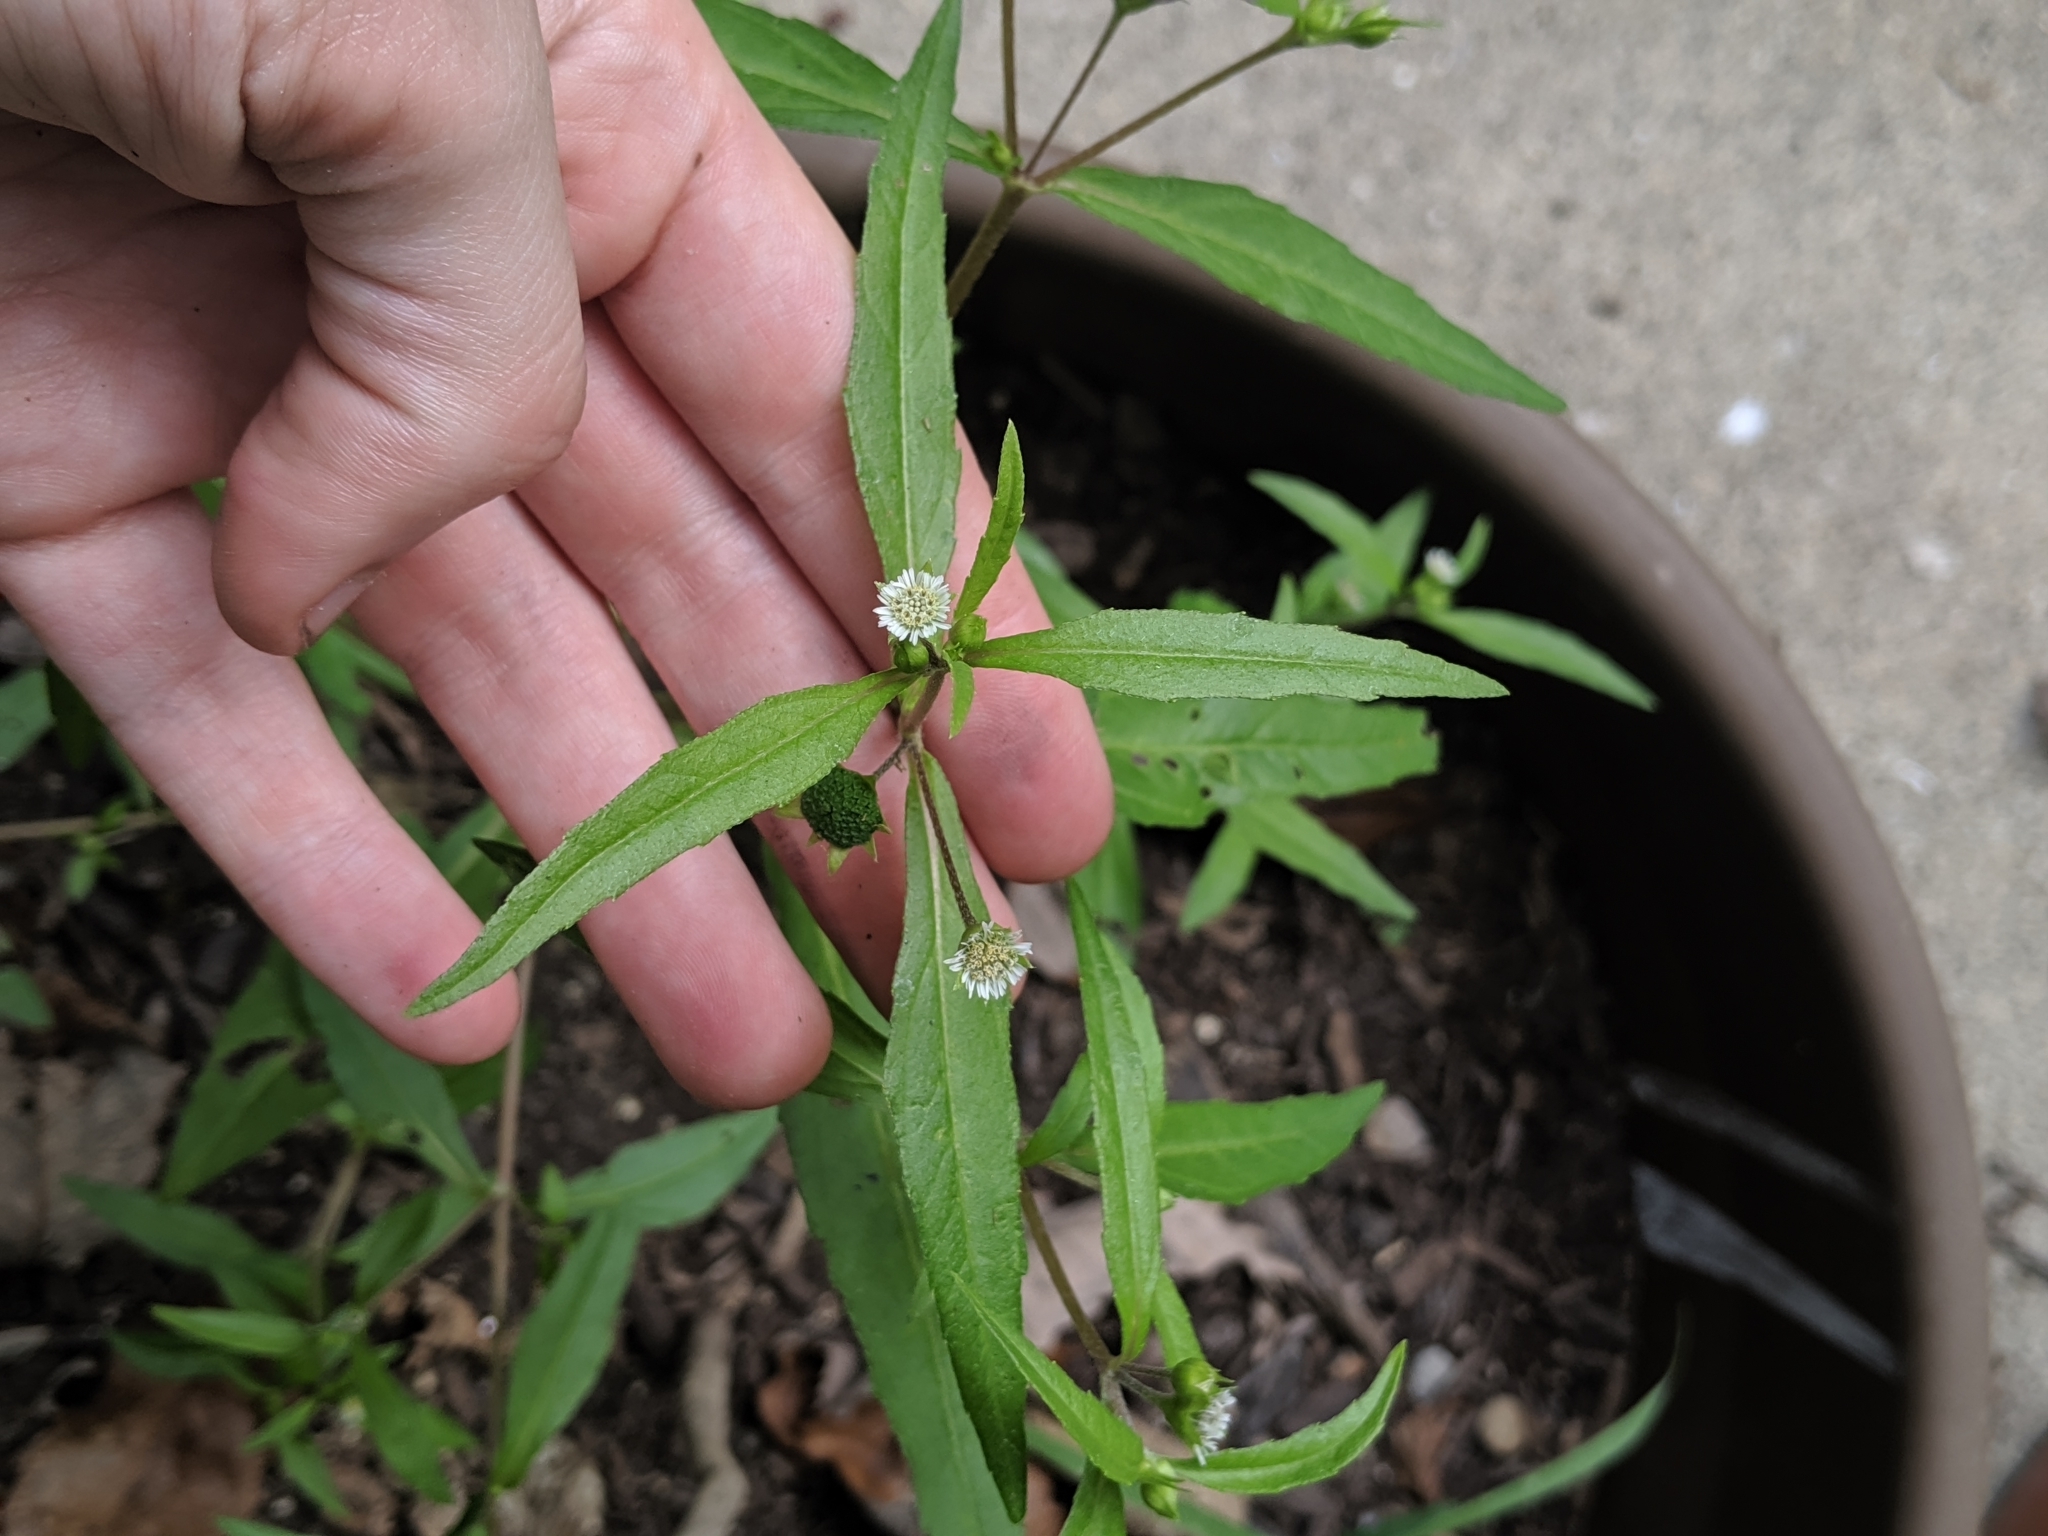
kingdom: Plantae
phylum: Tracheophyta
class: Magnoliopsida
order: Asterales
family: Asteraceae
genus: Eclipta
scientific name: Eclipta prostrata
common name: False daisy
